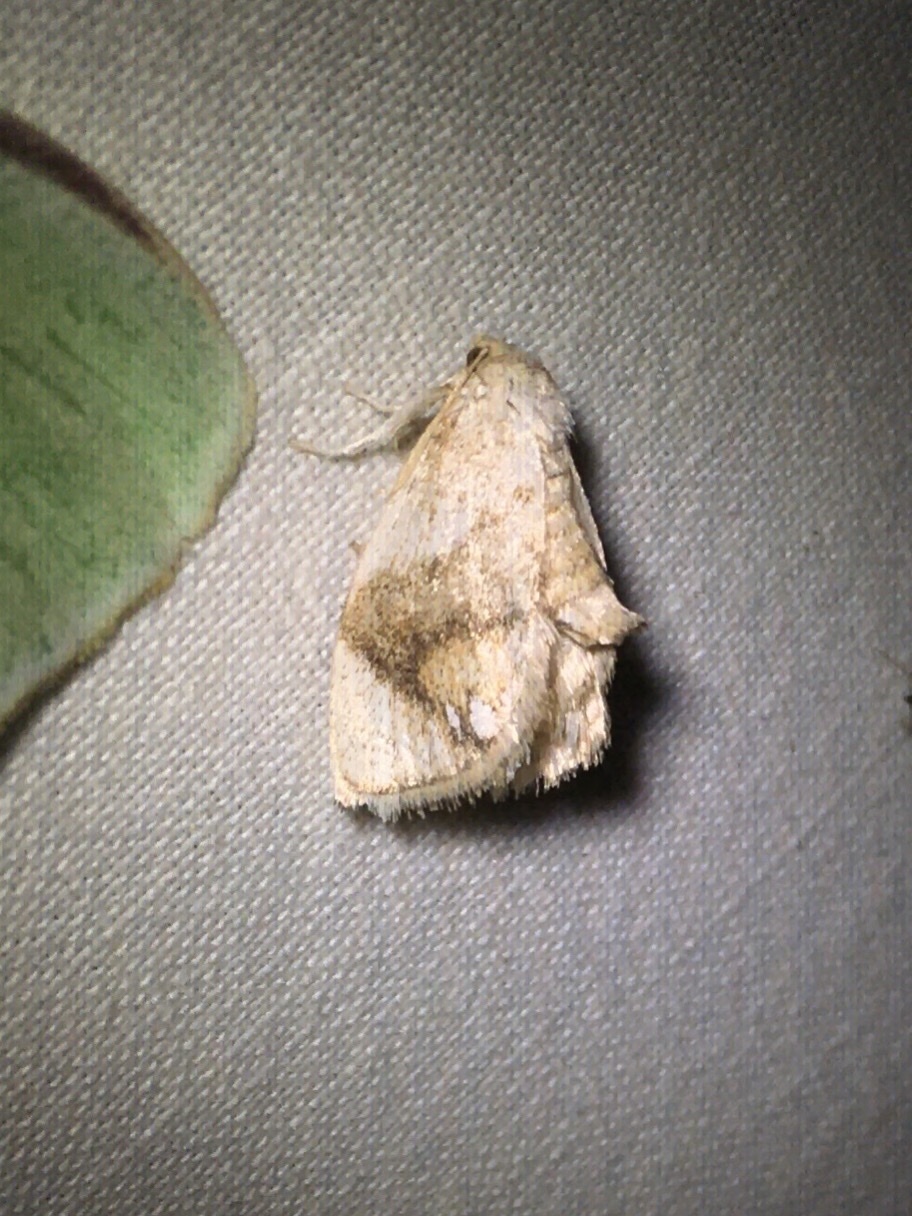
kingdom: Animalia
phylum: Arthropoda
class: Insecta
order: Lepidoptera
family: Limacodidae
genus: Packardia
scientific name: Packardia geminata
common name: Jeweled tailed slug moth
